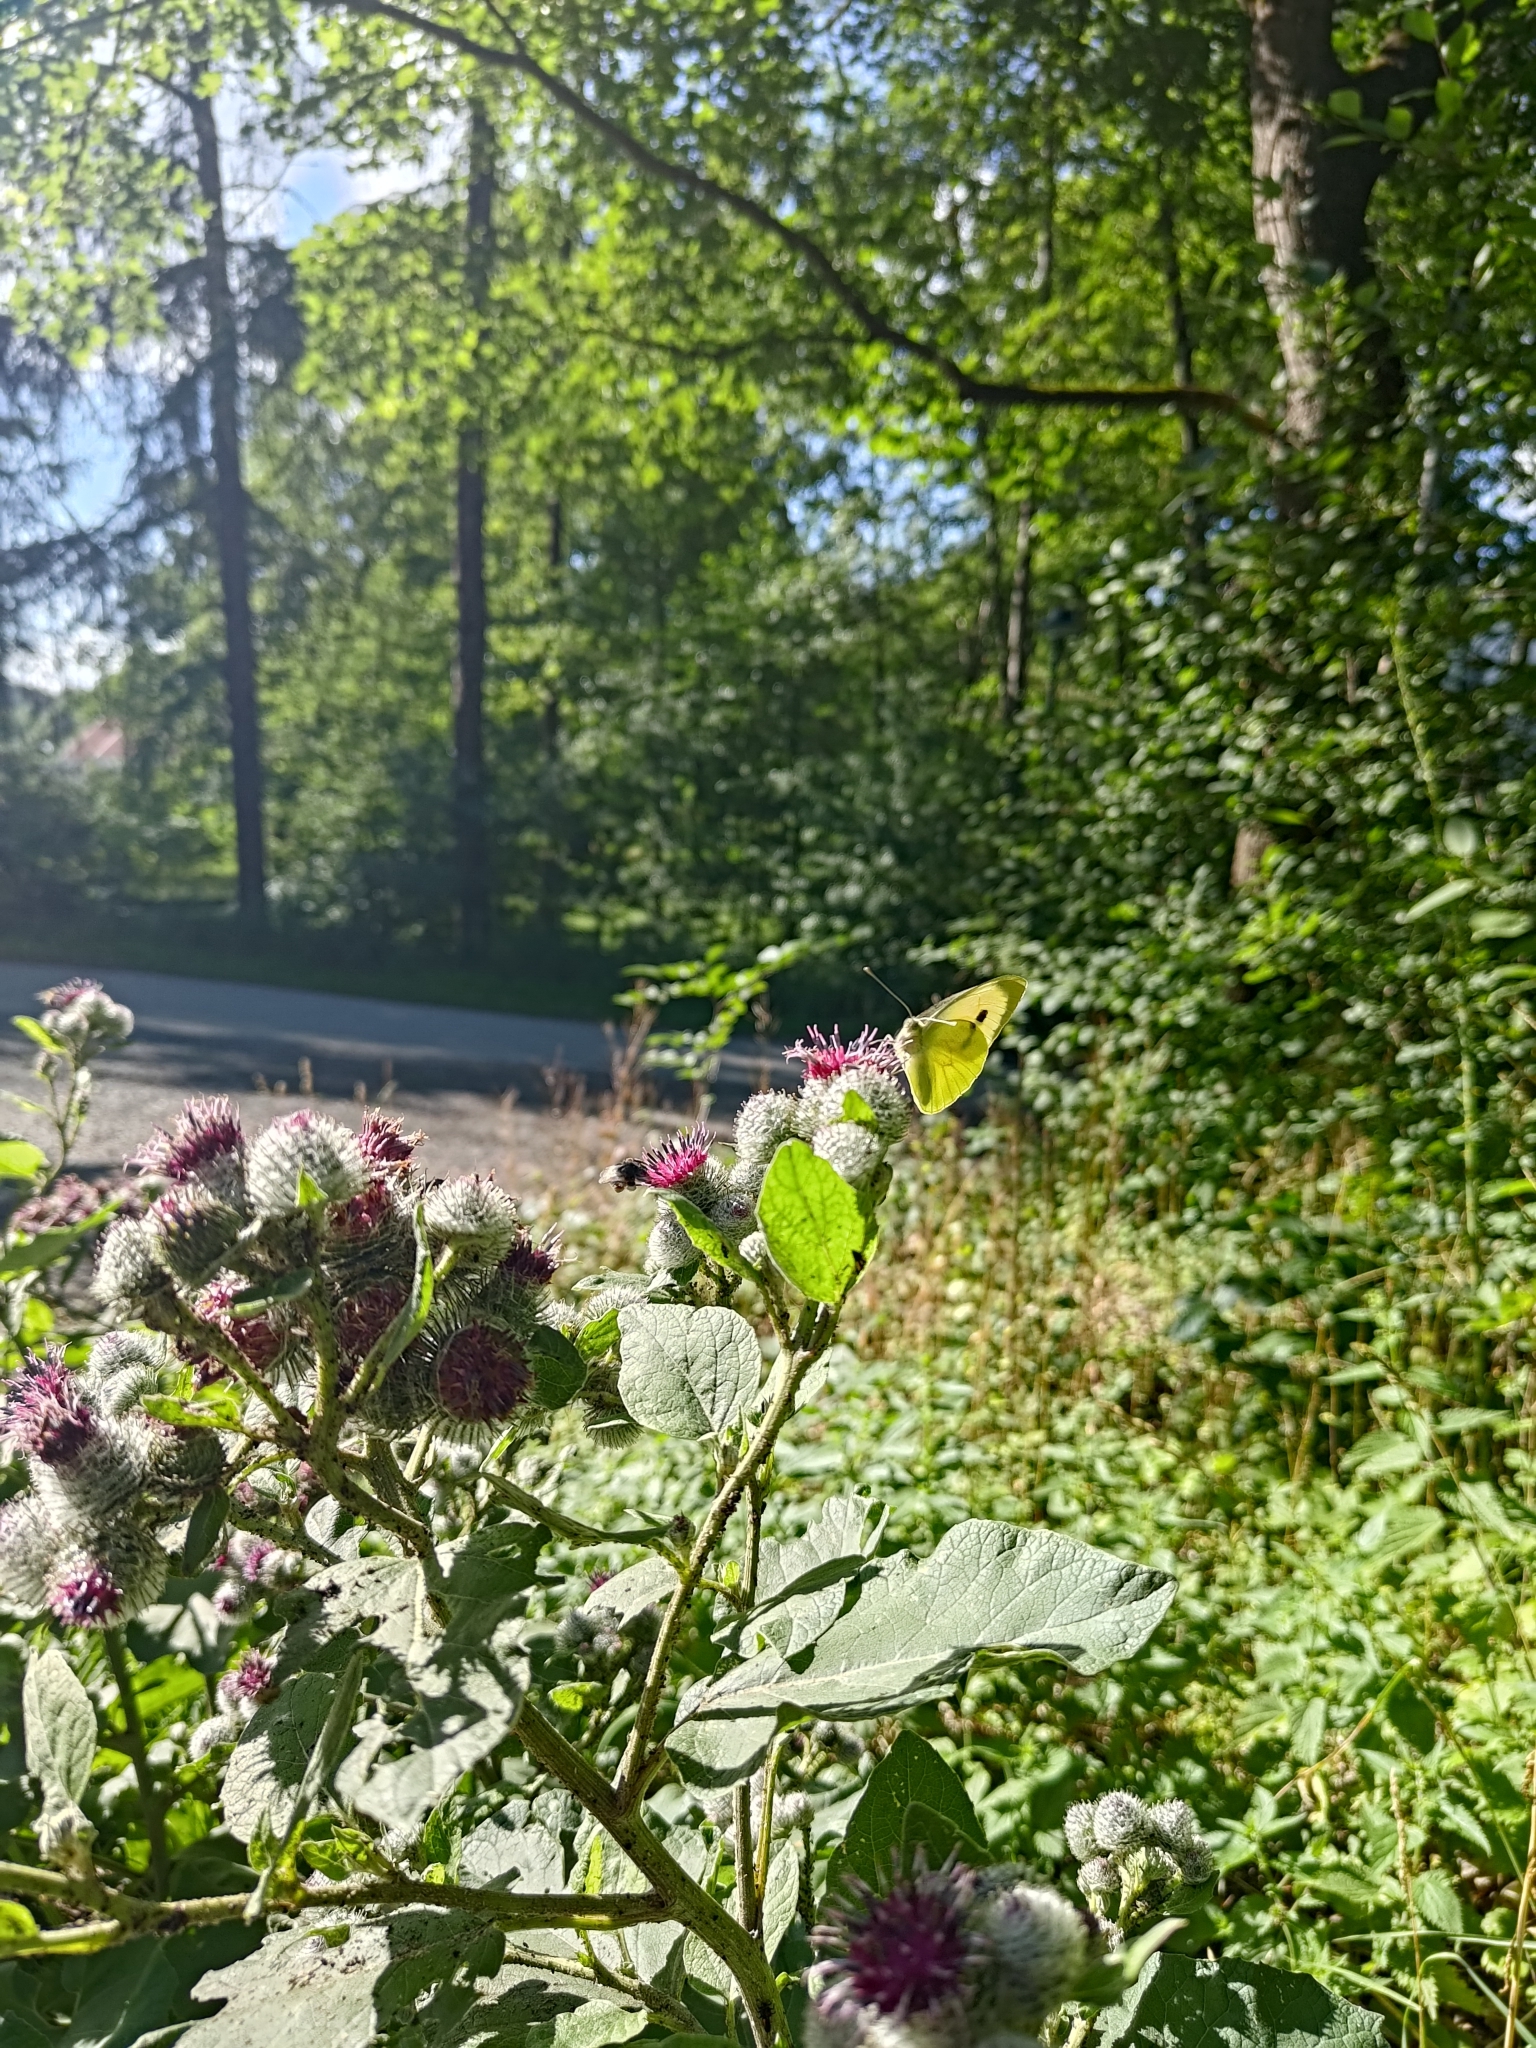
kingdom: Animalia
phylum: Arthropoda
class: Insecta
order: Lepidoptera
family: Pieridae
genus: Pieris
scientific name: Pieris brassicae
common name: Large white
